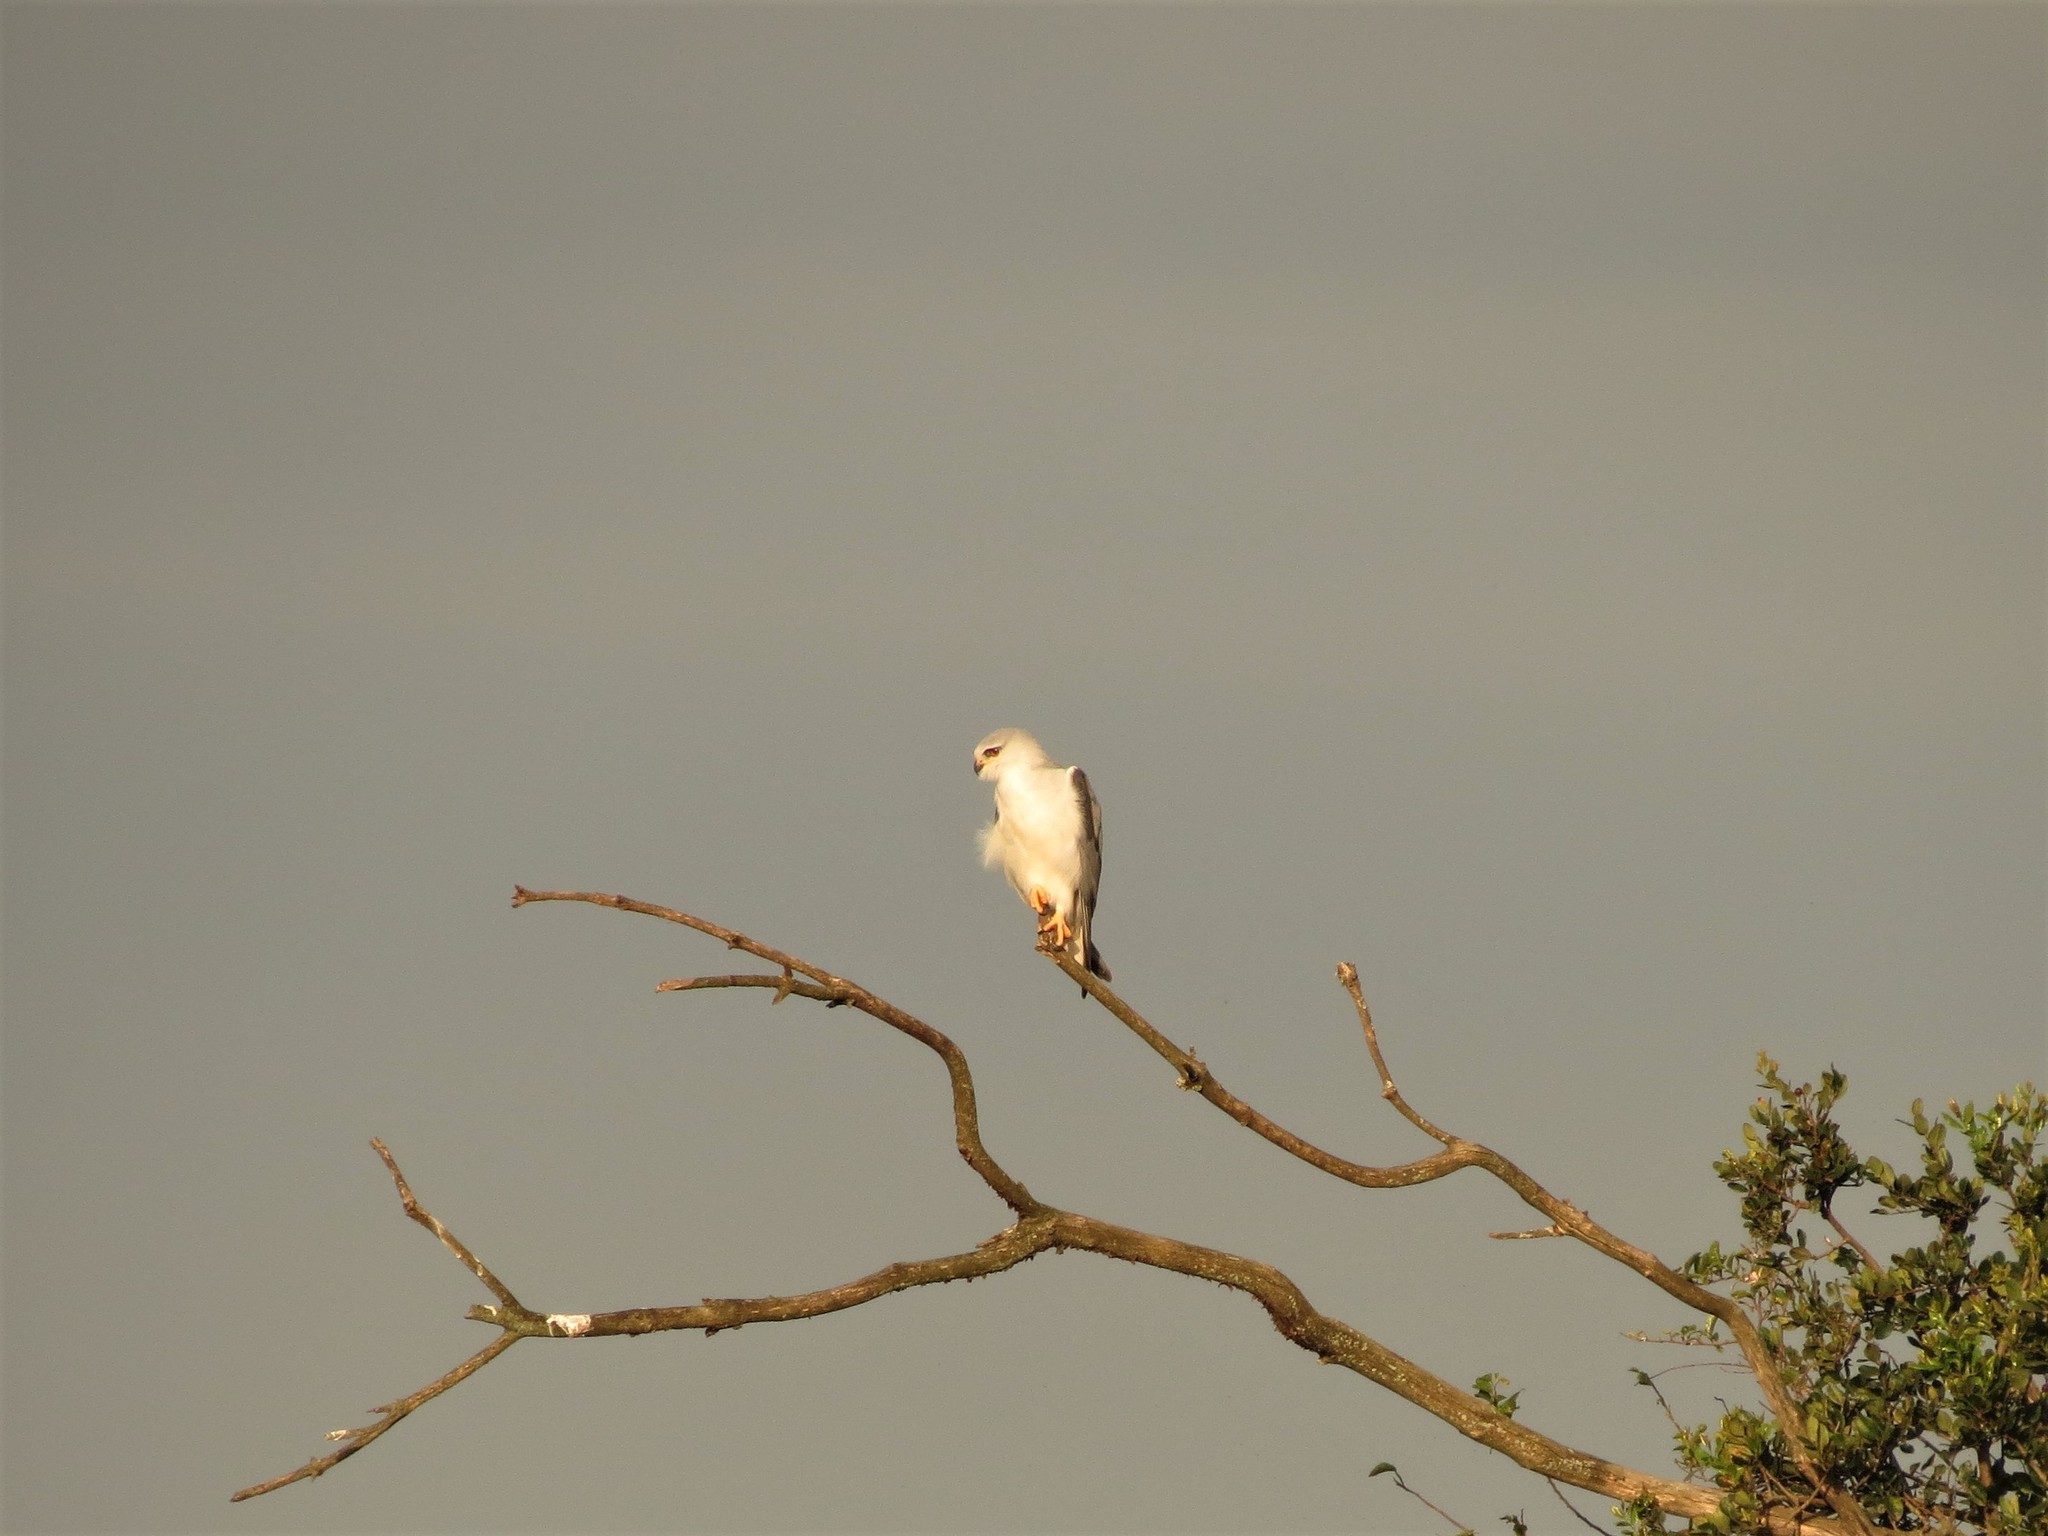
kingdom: Animalia
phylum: Chordata
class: Aves
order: Accipitriformes
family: Accipitridae
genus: Elanus
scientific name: Elanus caeruleus
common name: Black-winged kite
